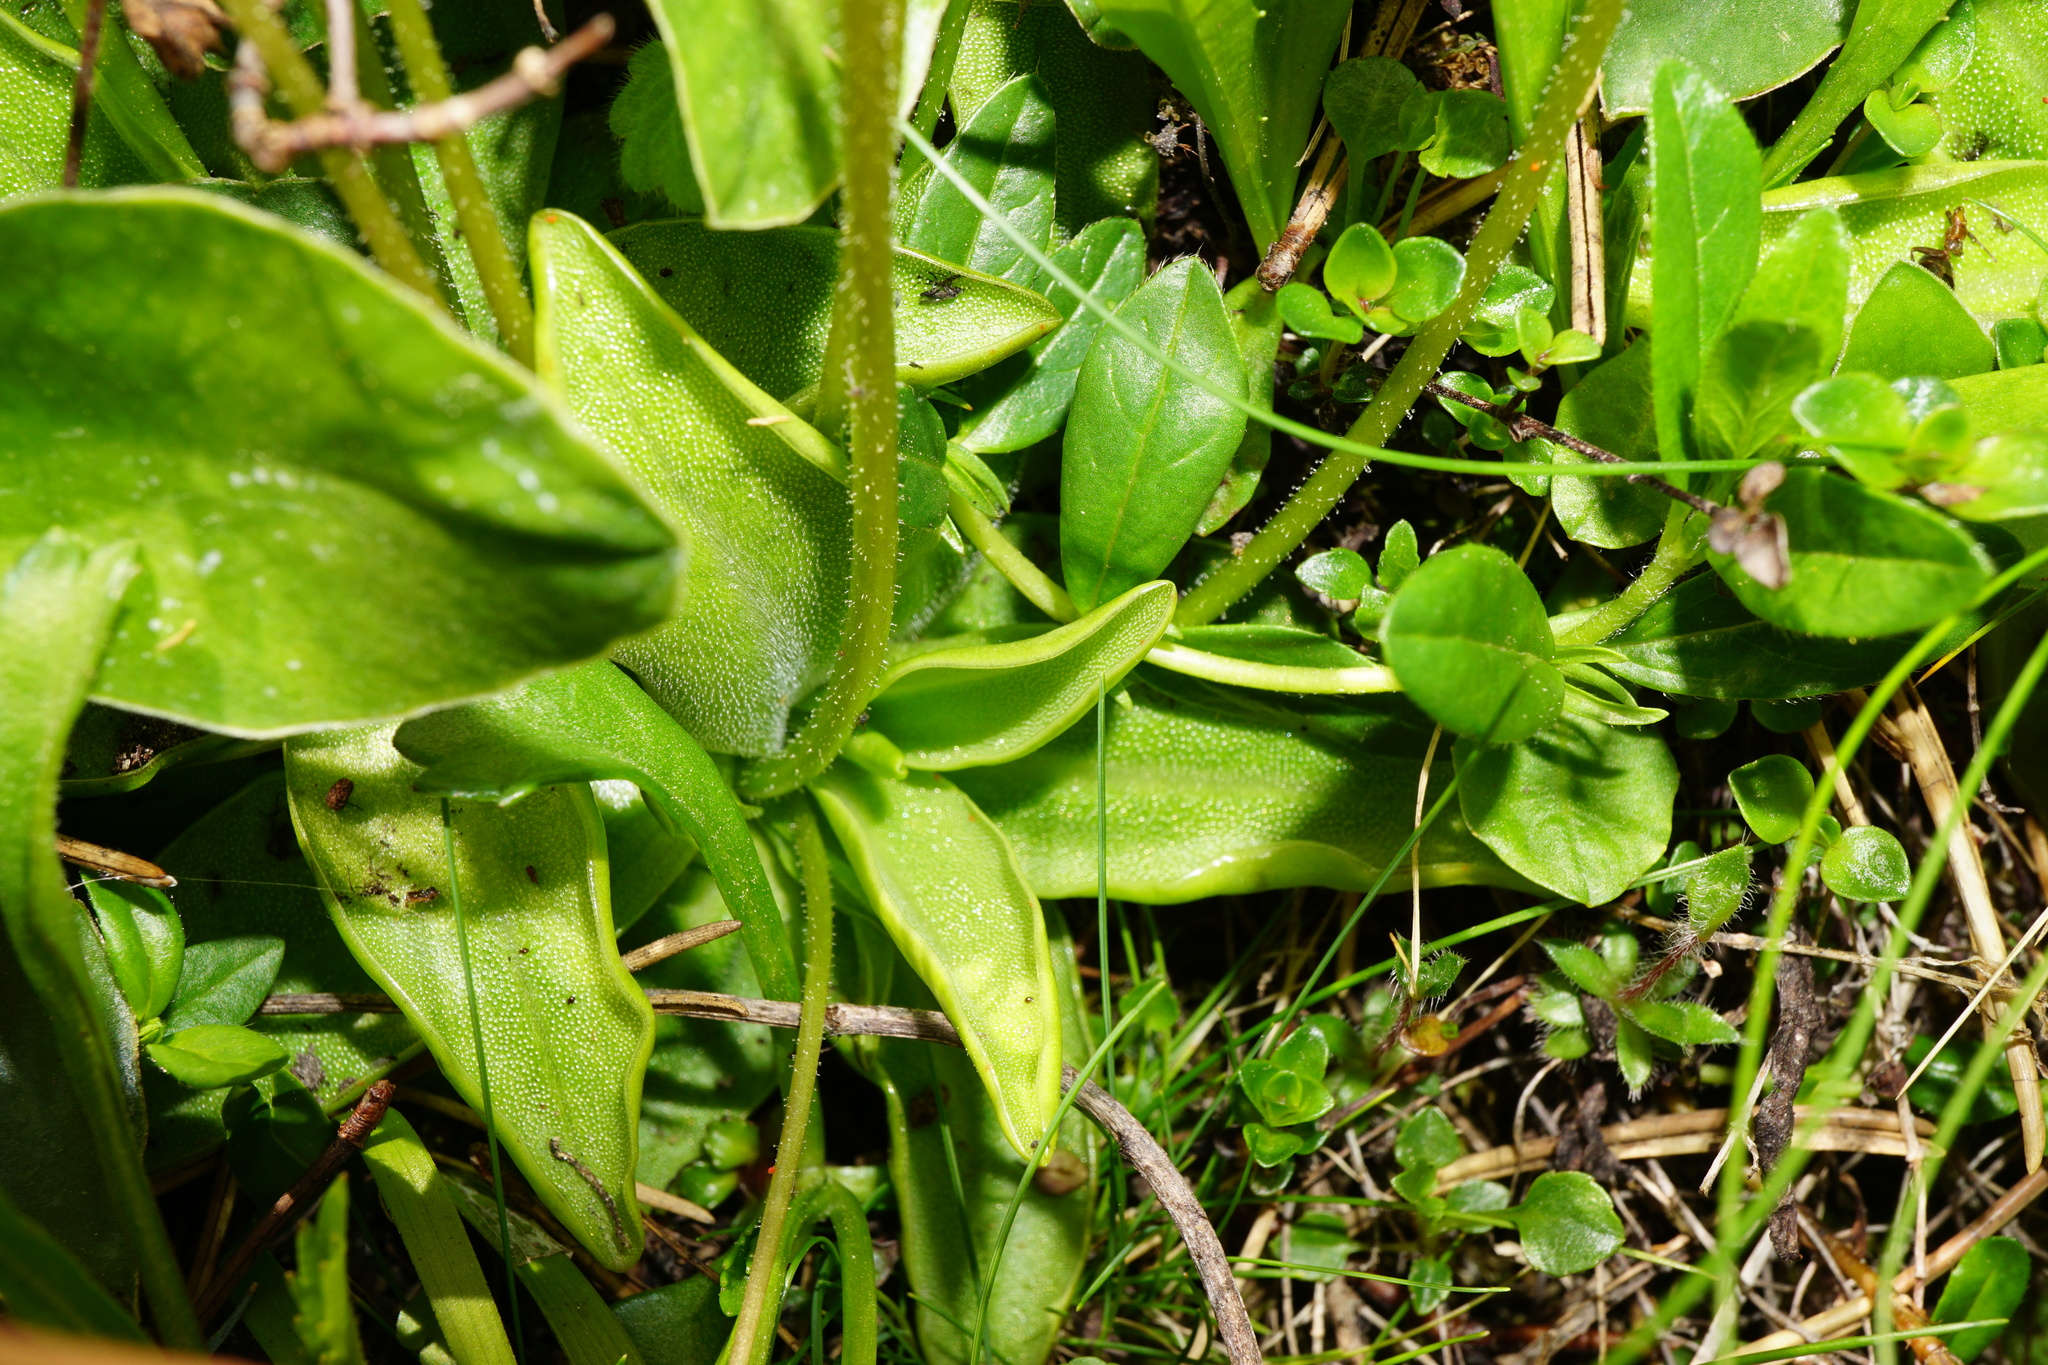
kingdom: Plantae
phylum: Tracheophyta
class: Magnoliopsida
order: Lamiales
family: Lentibulariaceae
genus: Pinguicula
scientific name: Pinguicula alpina
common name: Alpine butterwort
